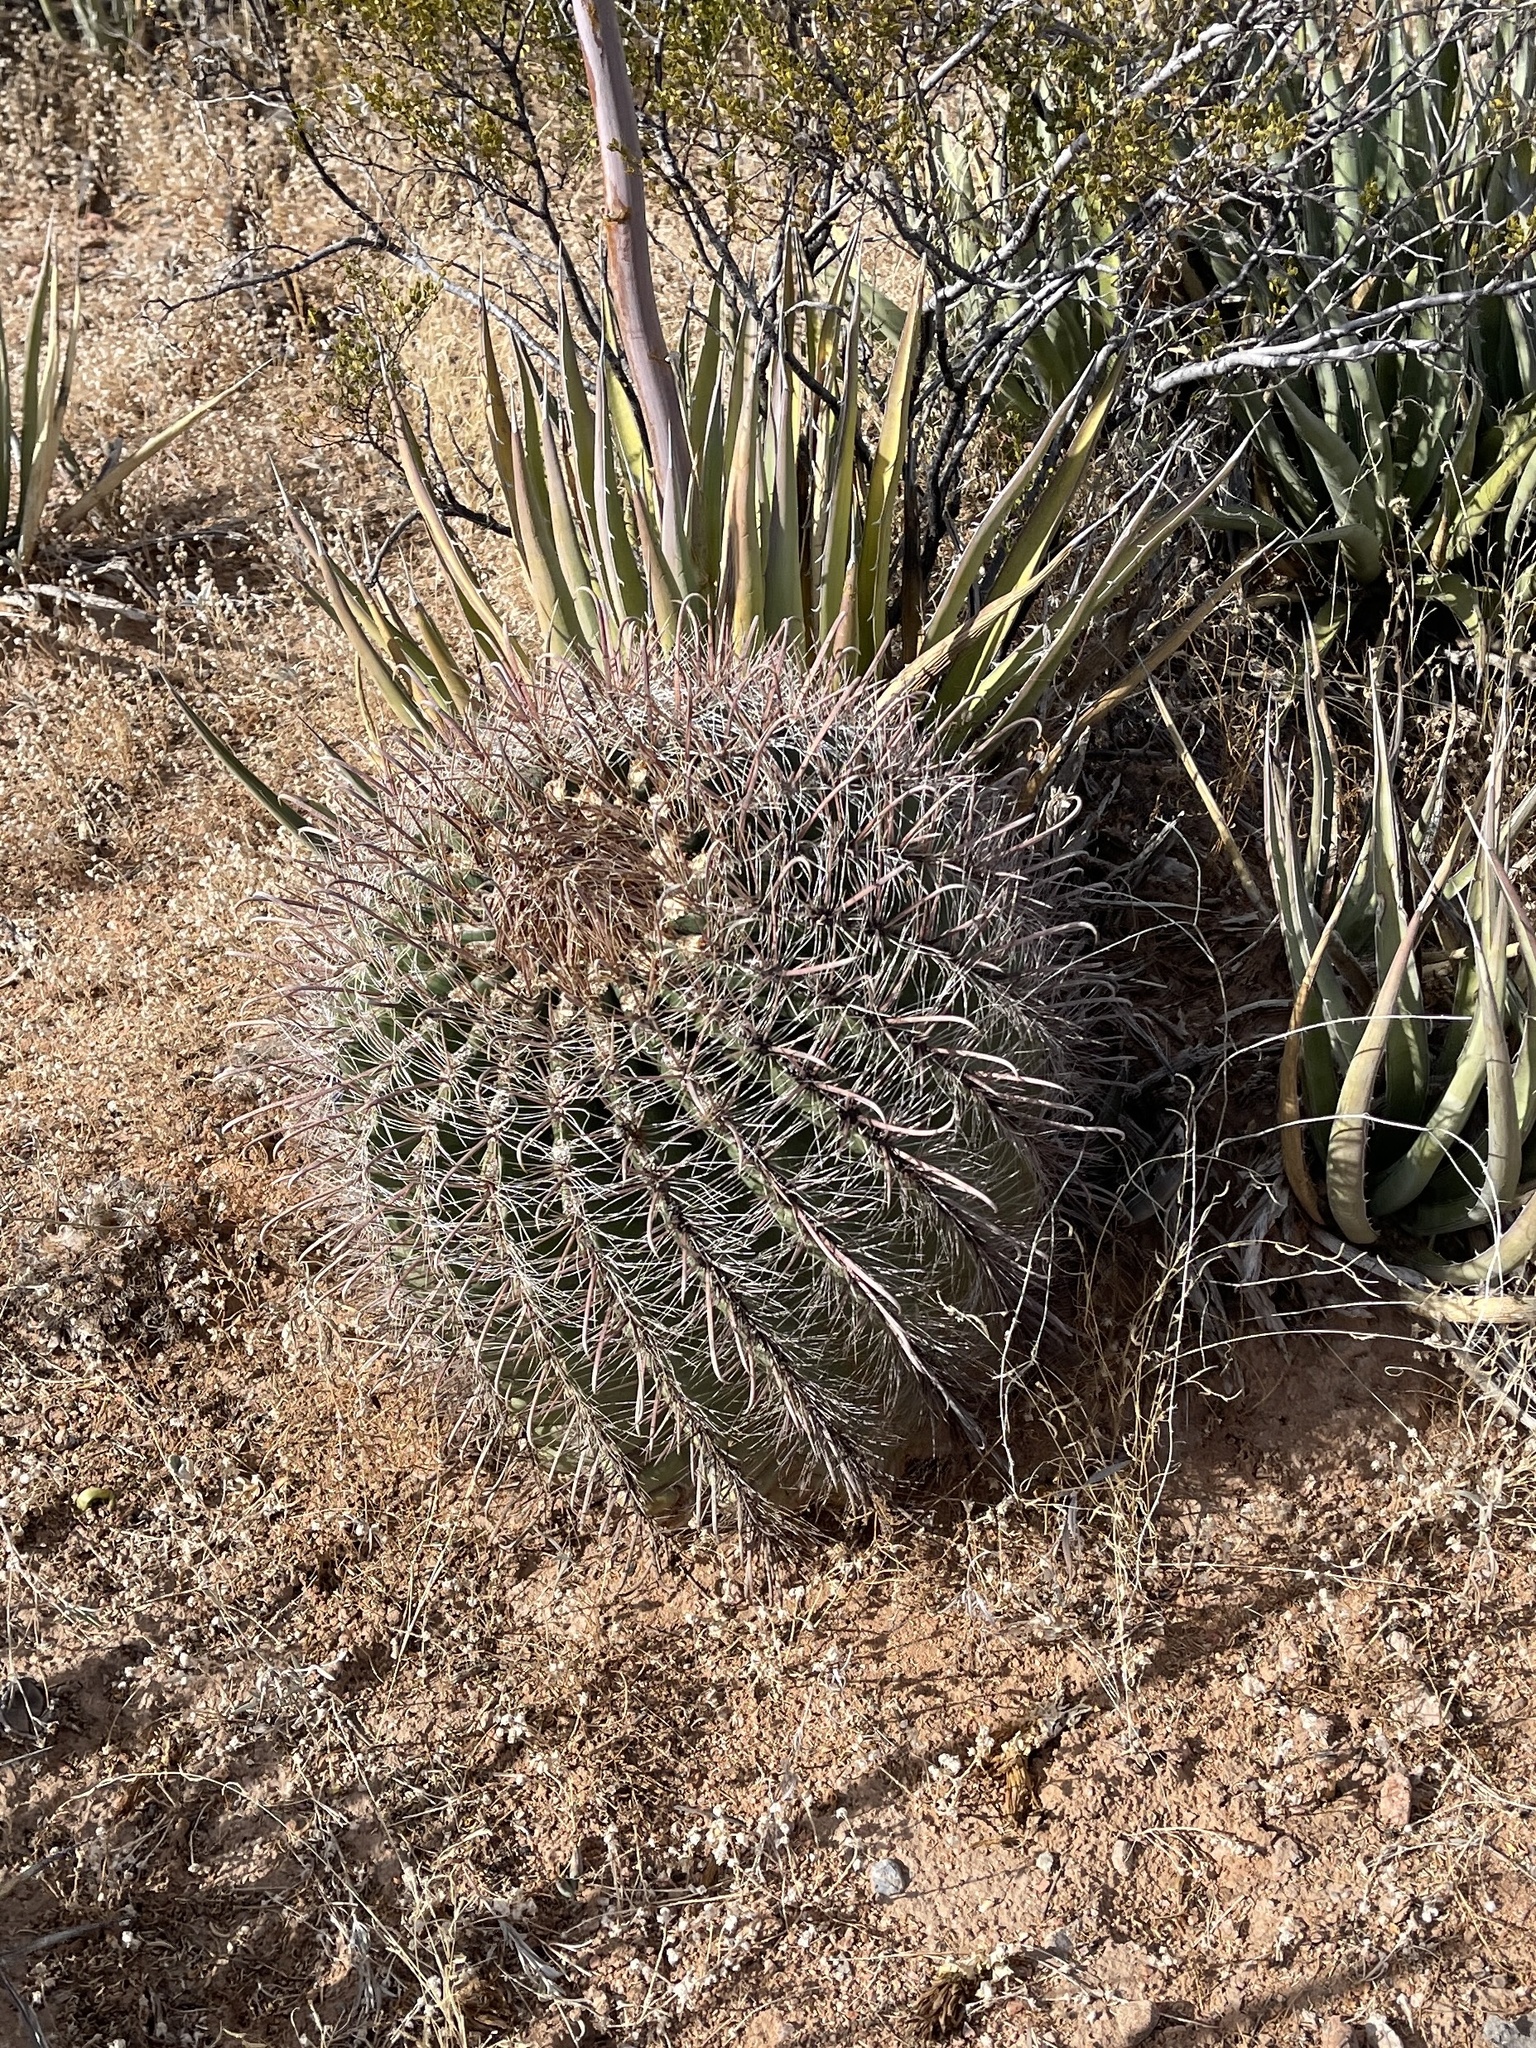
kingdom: Plantae
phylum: Tracheophyta
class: Magnoliopsida
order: Caryophyllales
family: Cactaceae
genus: Ferocactus
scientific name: Ferocactus wislizeni
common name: Candy barrel cactus
